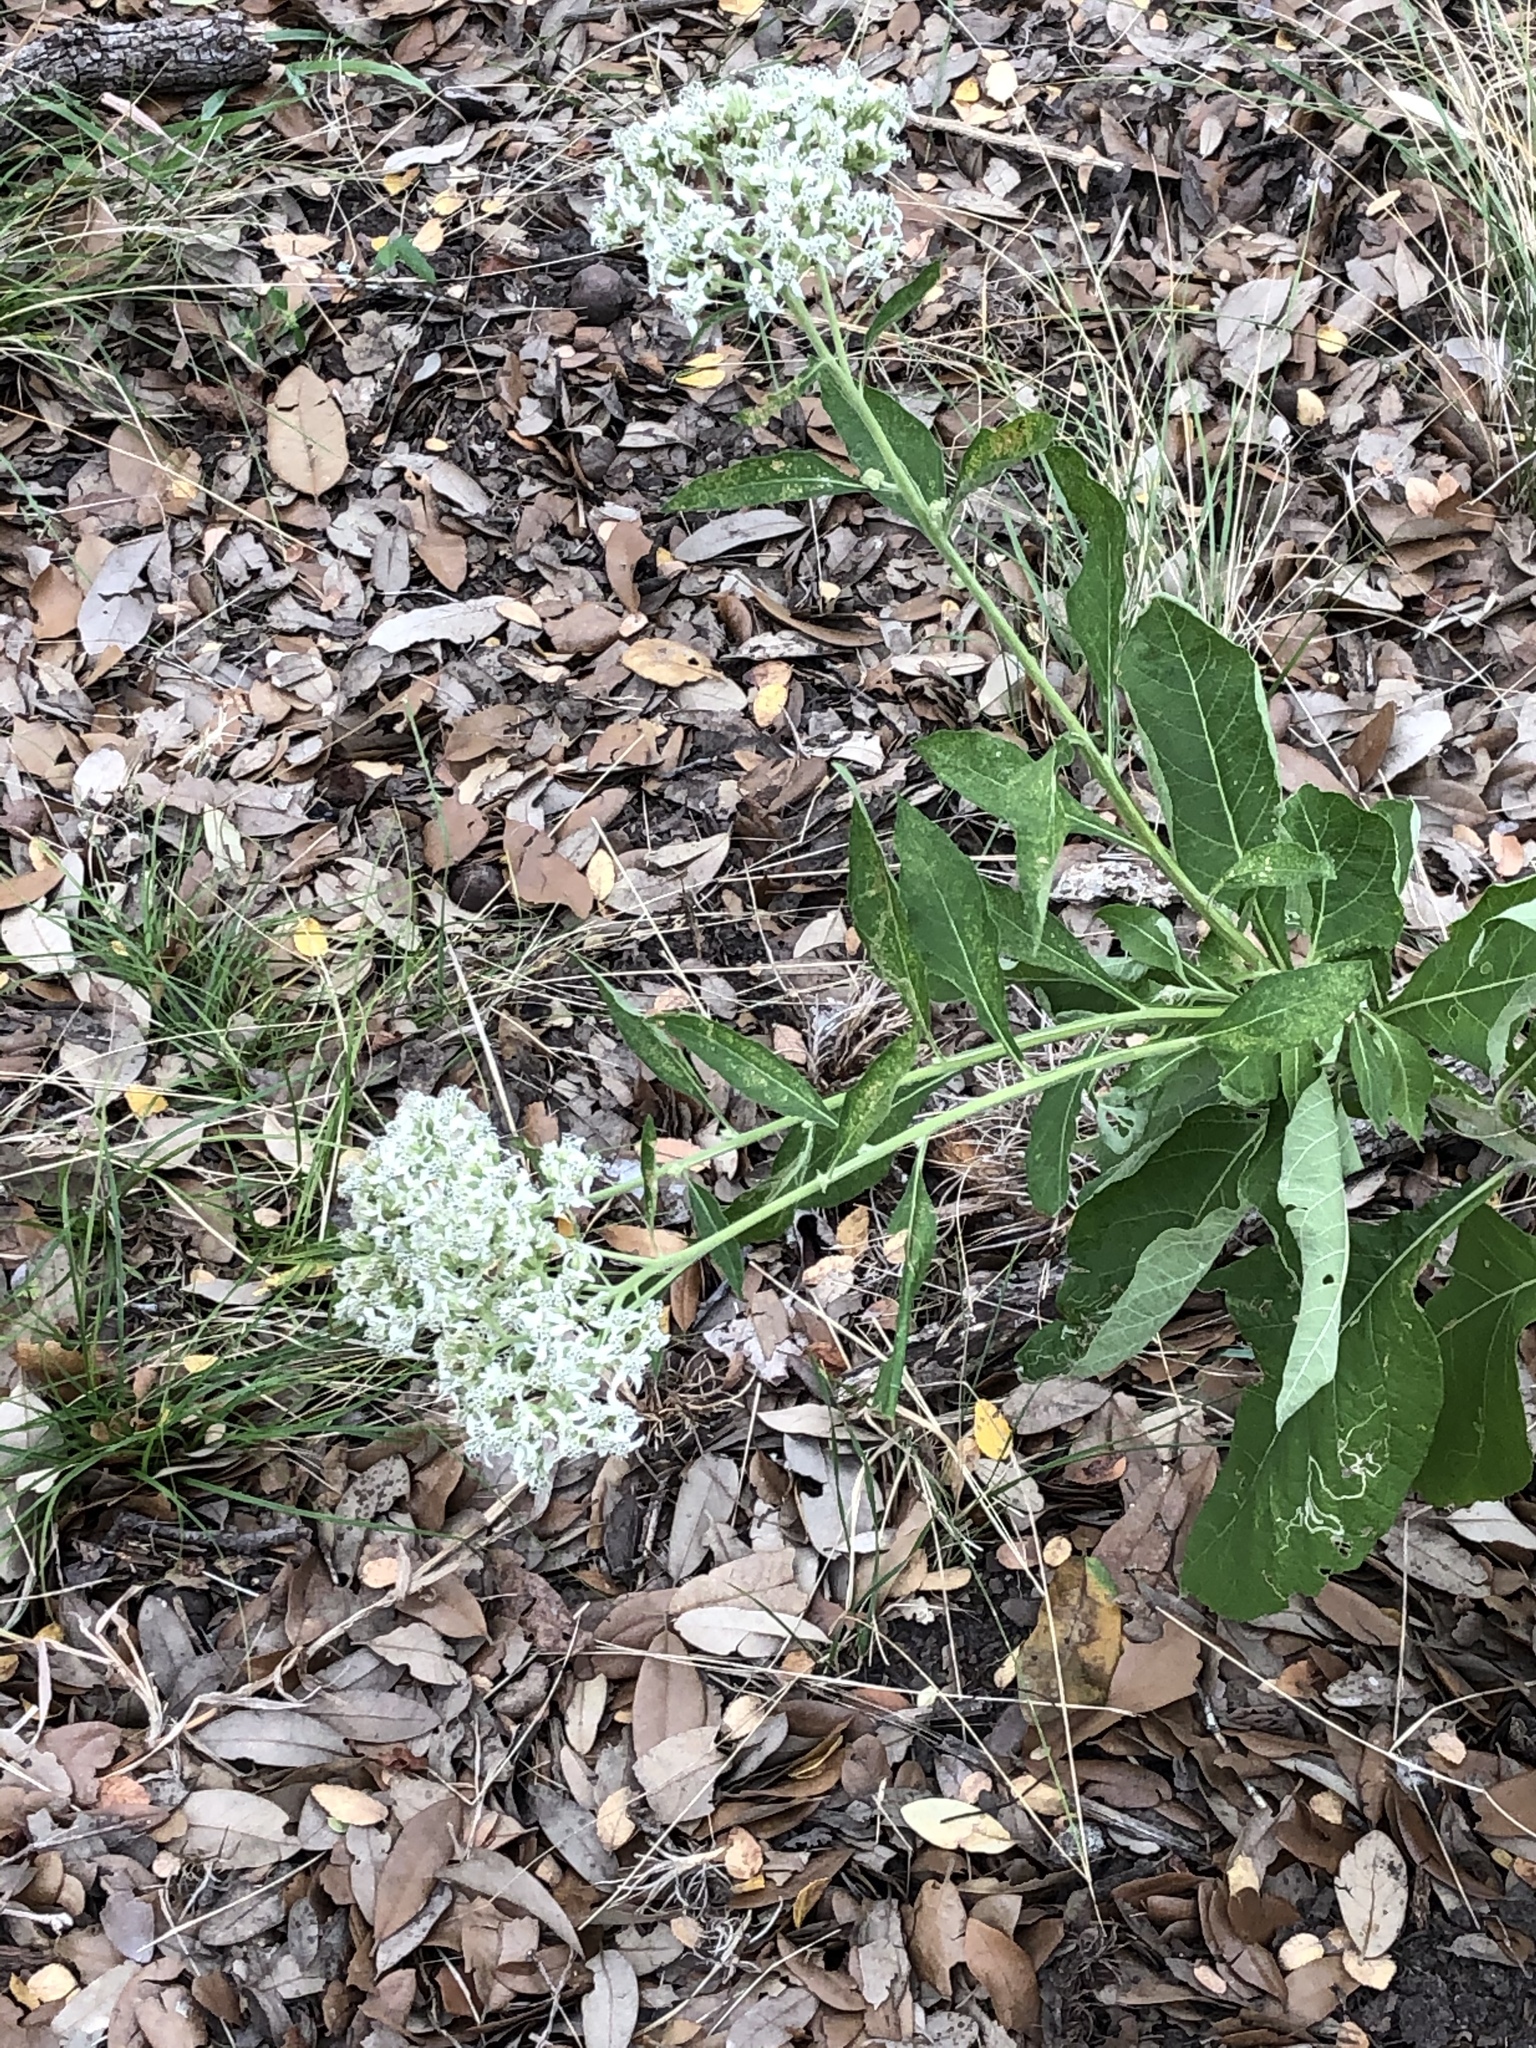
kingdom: Plantae
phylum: Tracheophyta
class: Magnoliopsida
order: Asterales
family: Asteraceae
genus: Verbesina
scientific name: Verbesina virginica
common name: Frostweed
